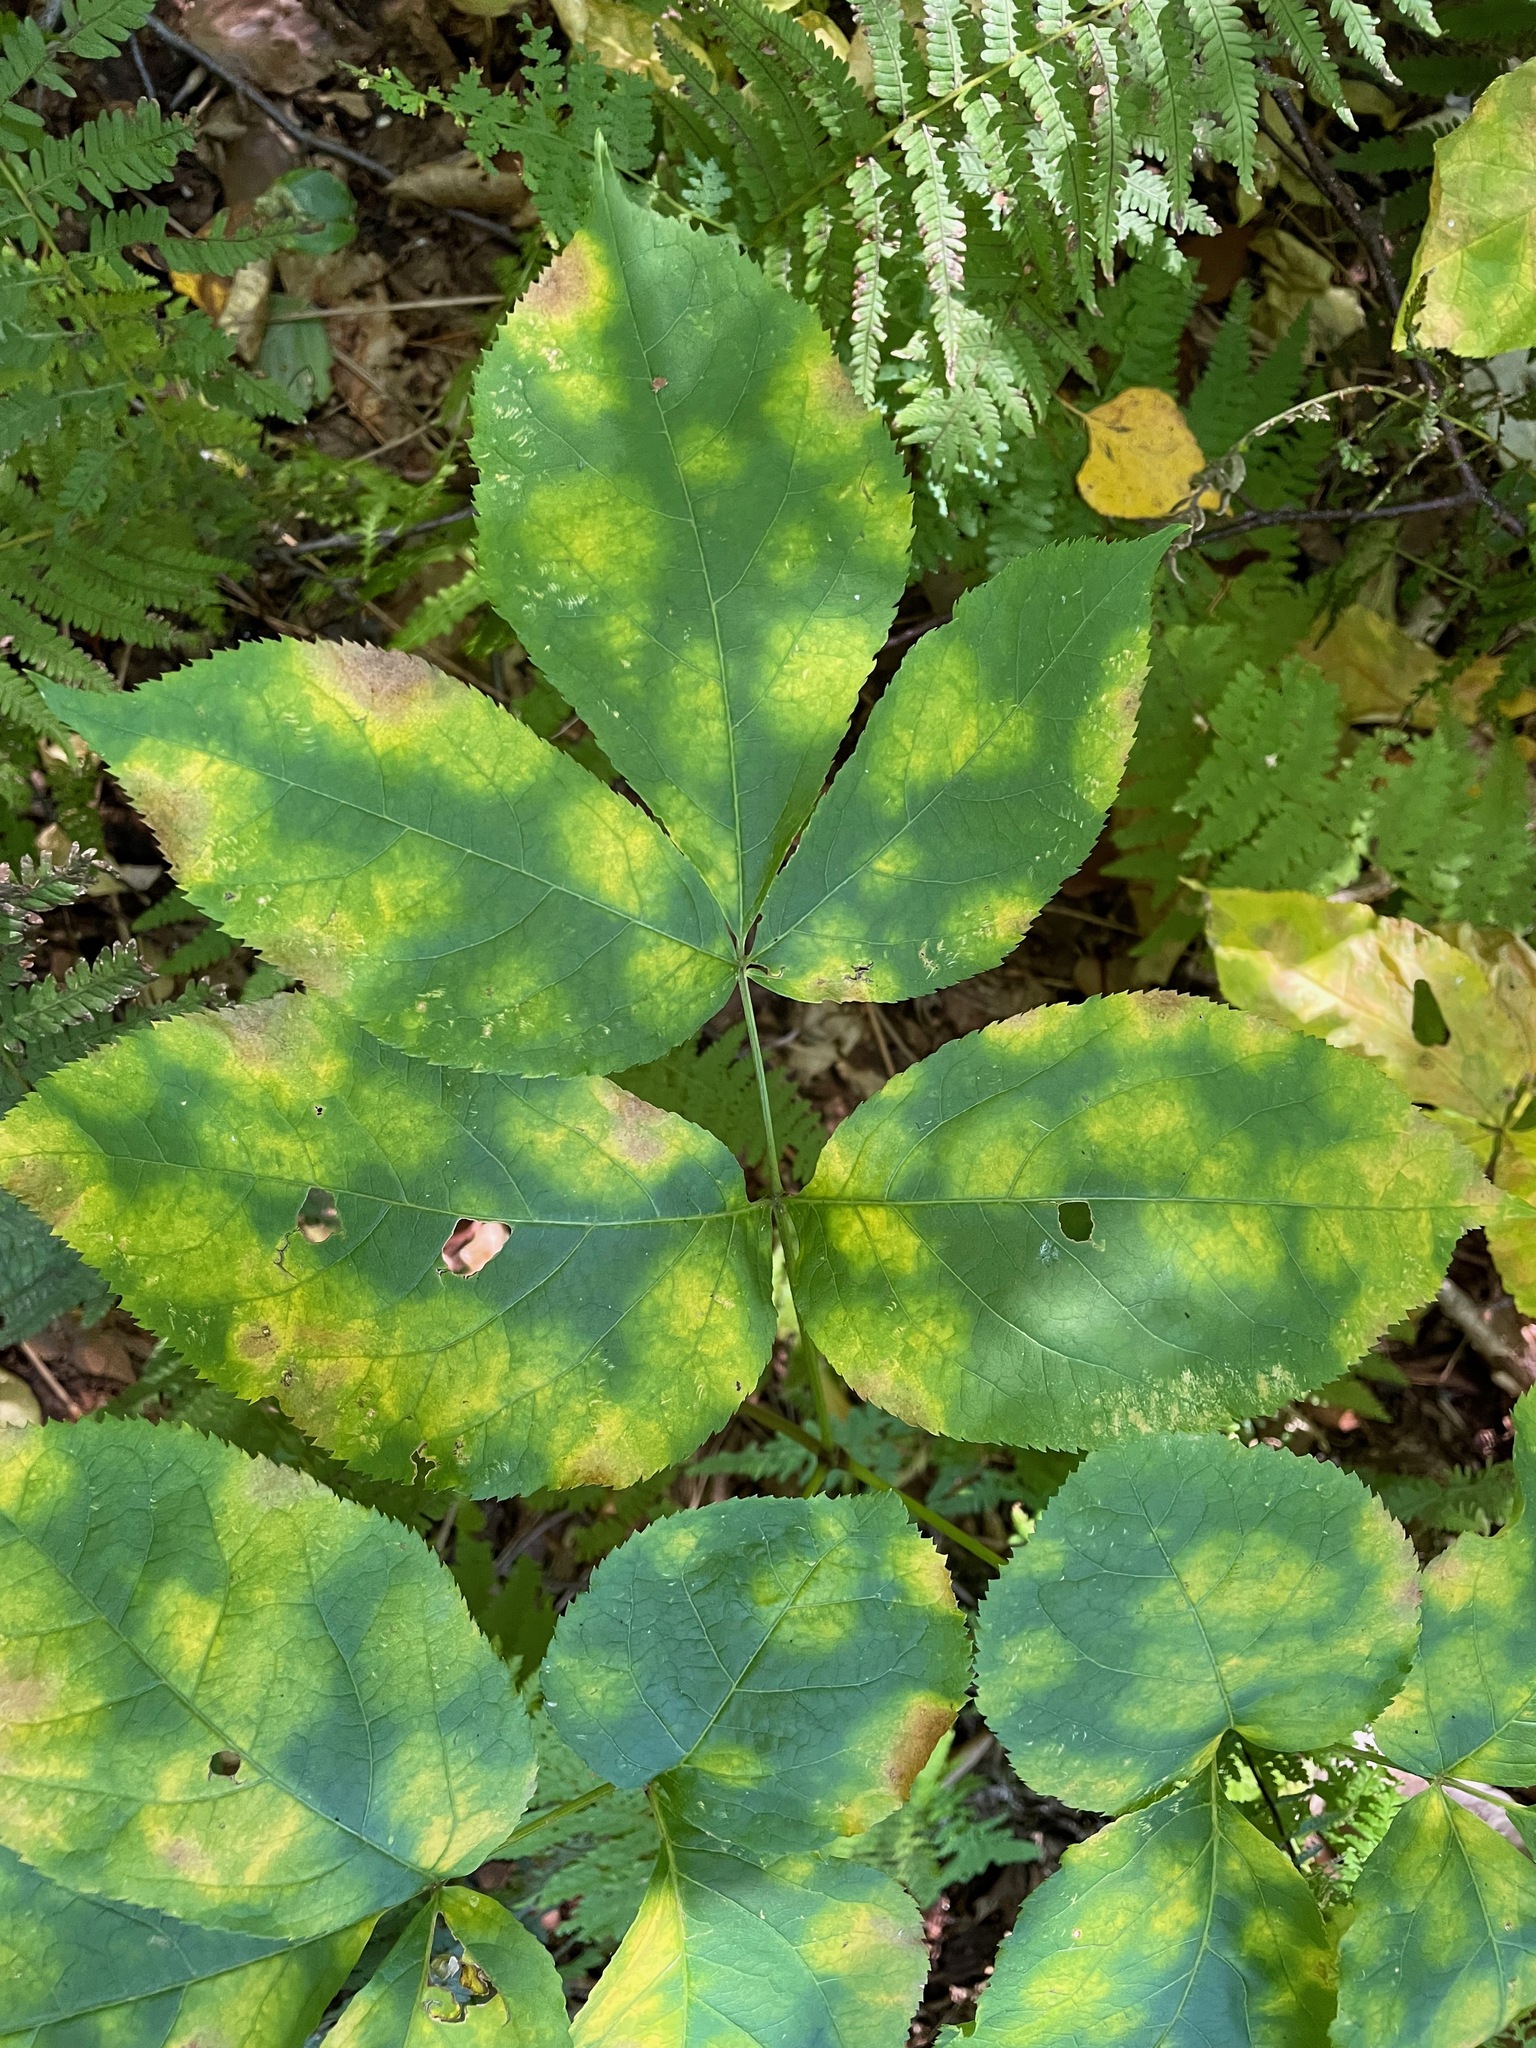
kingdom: Plantae
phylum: Tracheophyta
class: Magnoliopsida
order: Apiales
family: Araliaceae
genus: Aralia
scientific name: Aralia nudicaulis
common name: Wild sarsaparilla
